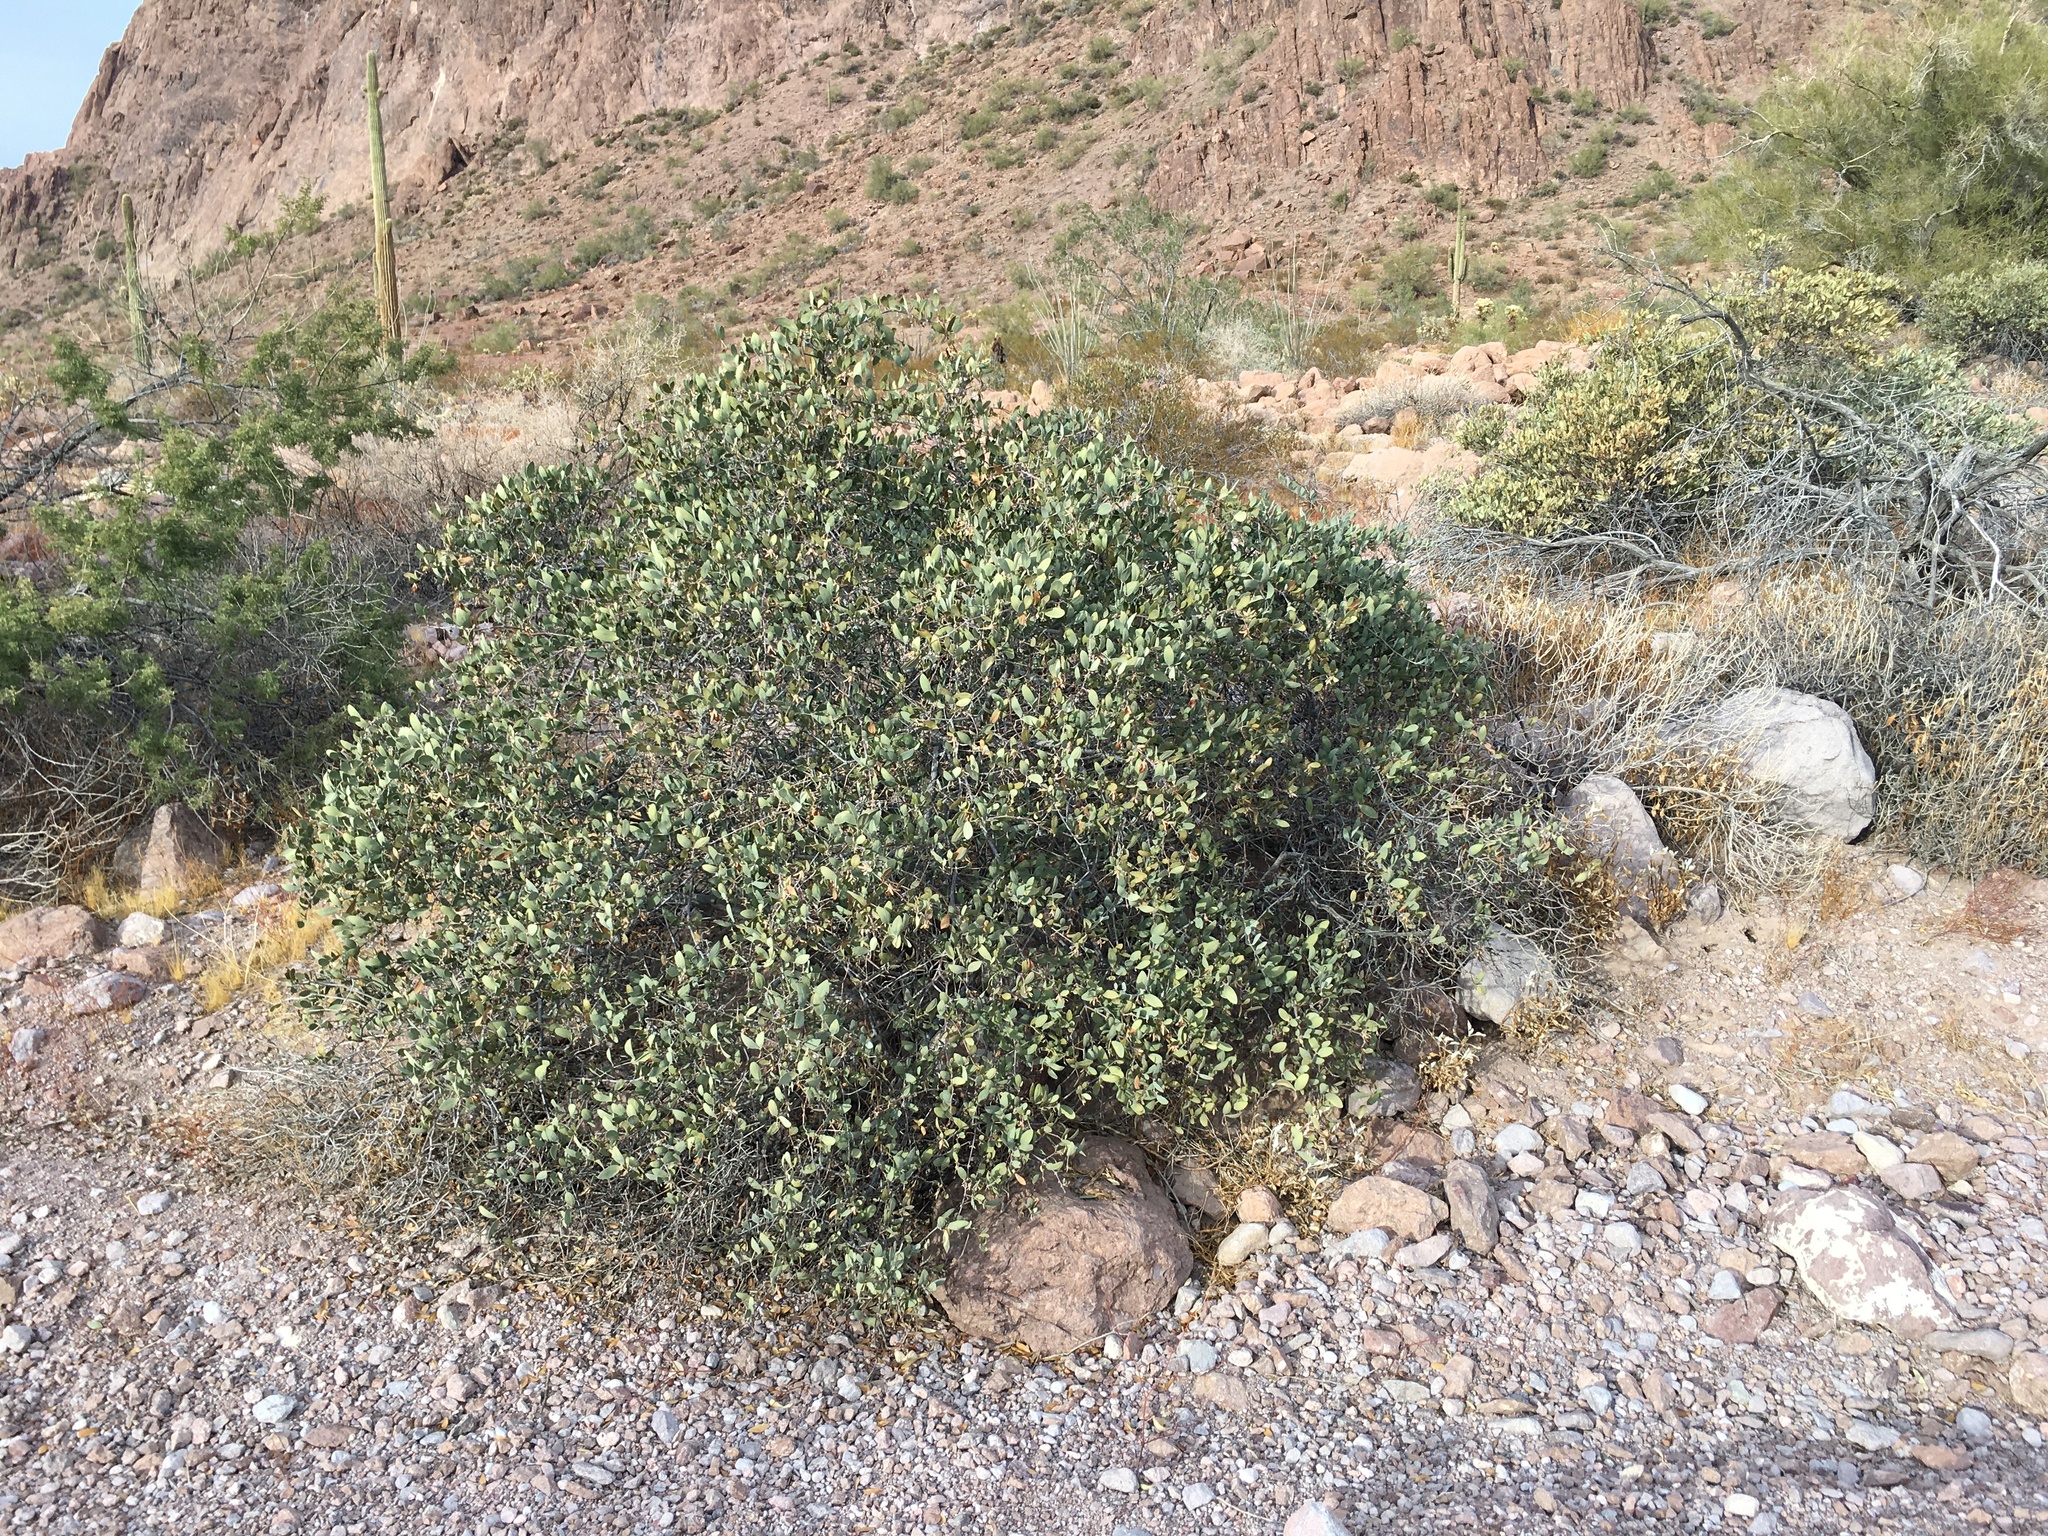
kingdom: Plantae
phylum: Tracheophyta
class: Magnoliopsida
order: Caryophyllales
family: Simmondsiaceae
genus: Simmondsia
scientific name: Simmondsia chinensis
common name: Jojoba
